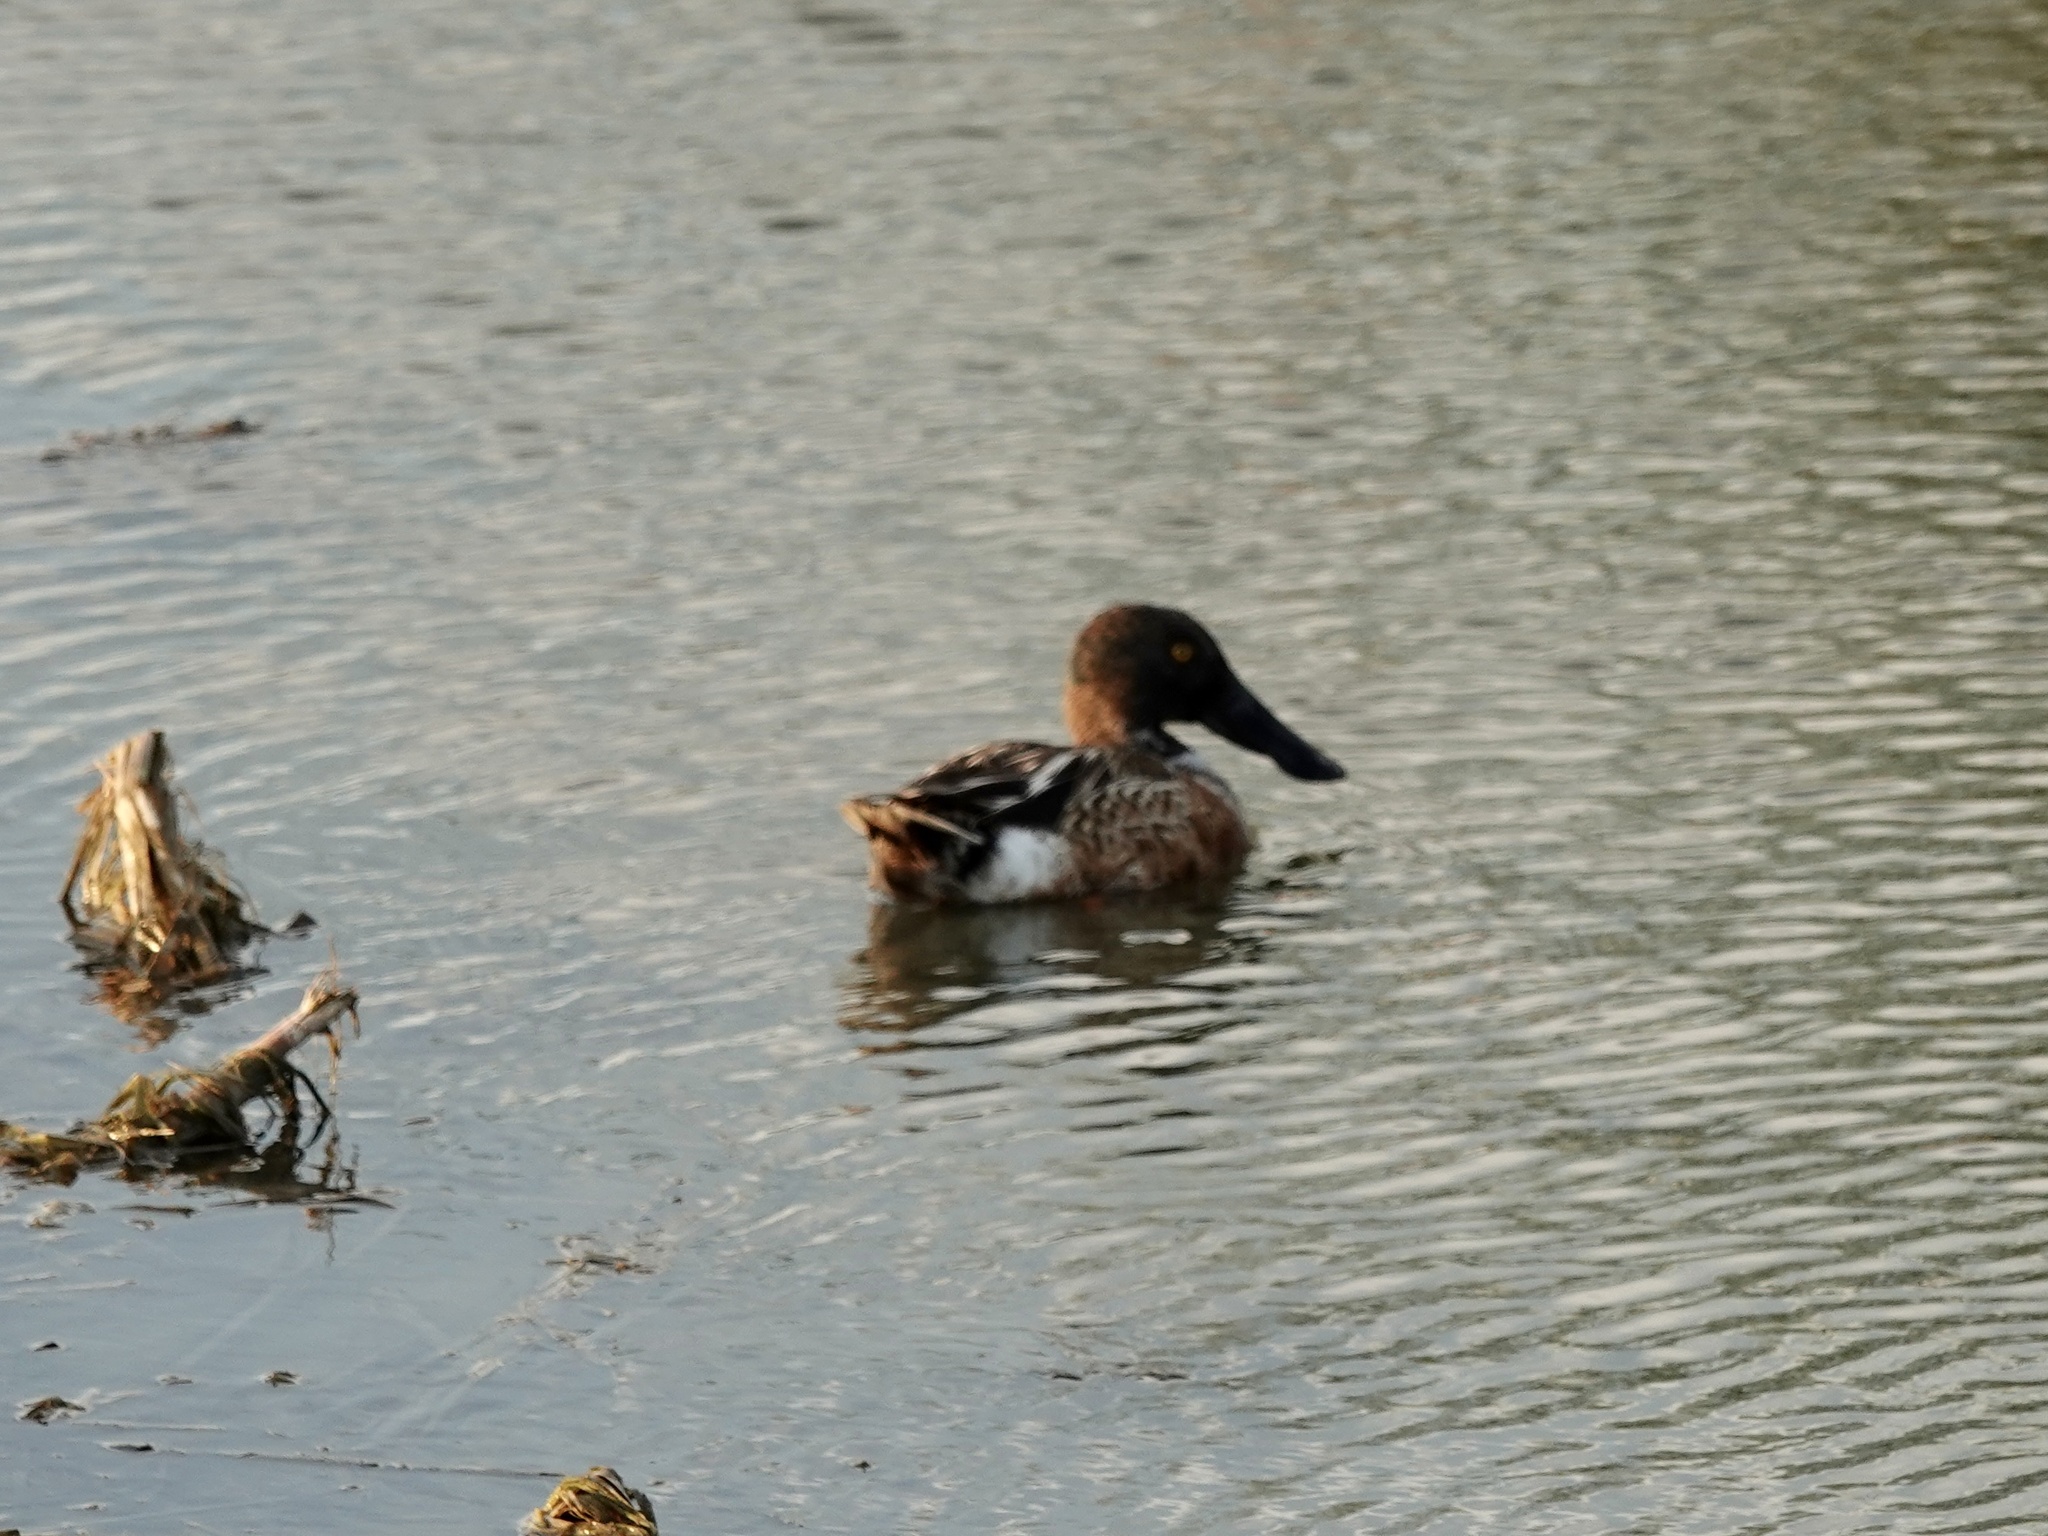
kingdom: Animalia
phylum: Chordata
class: Aves
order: Anseriformes
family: Anatidae
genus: Spatula
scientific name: Spatula clypeata
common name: Northern shoveler
